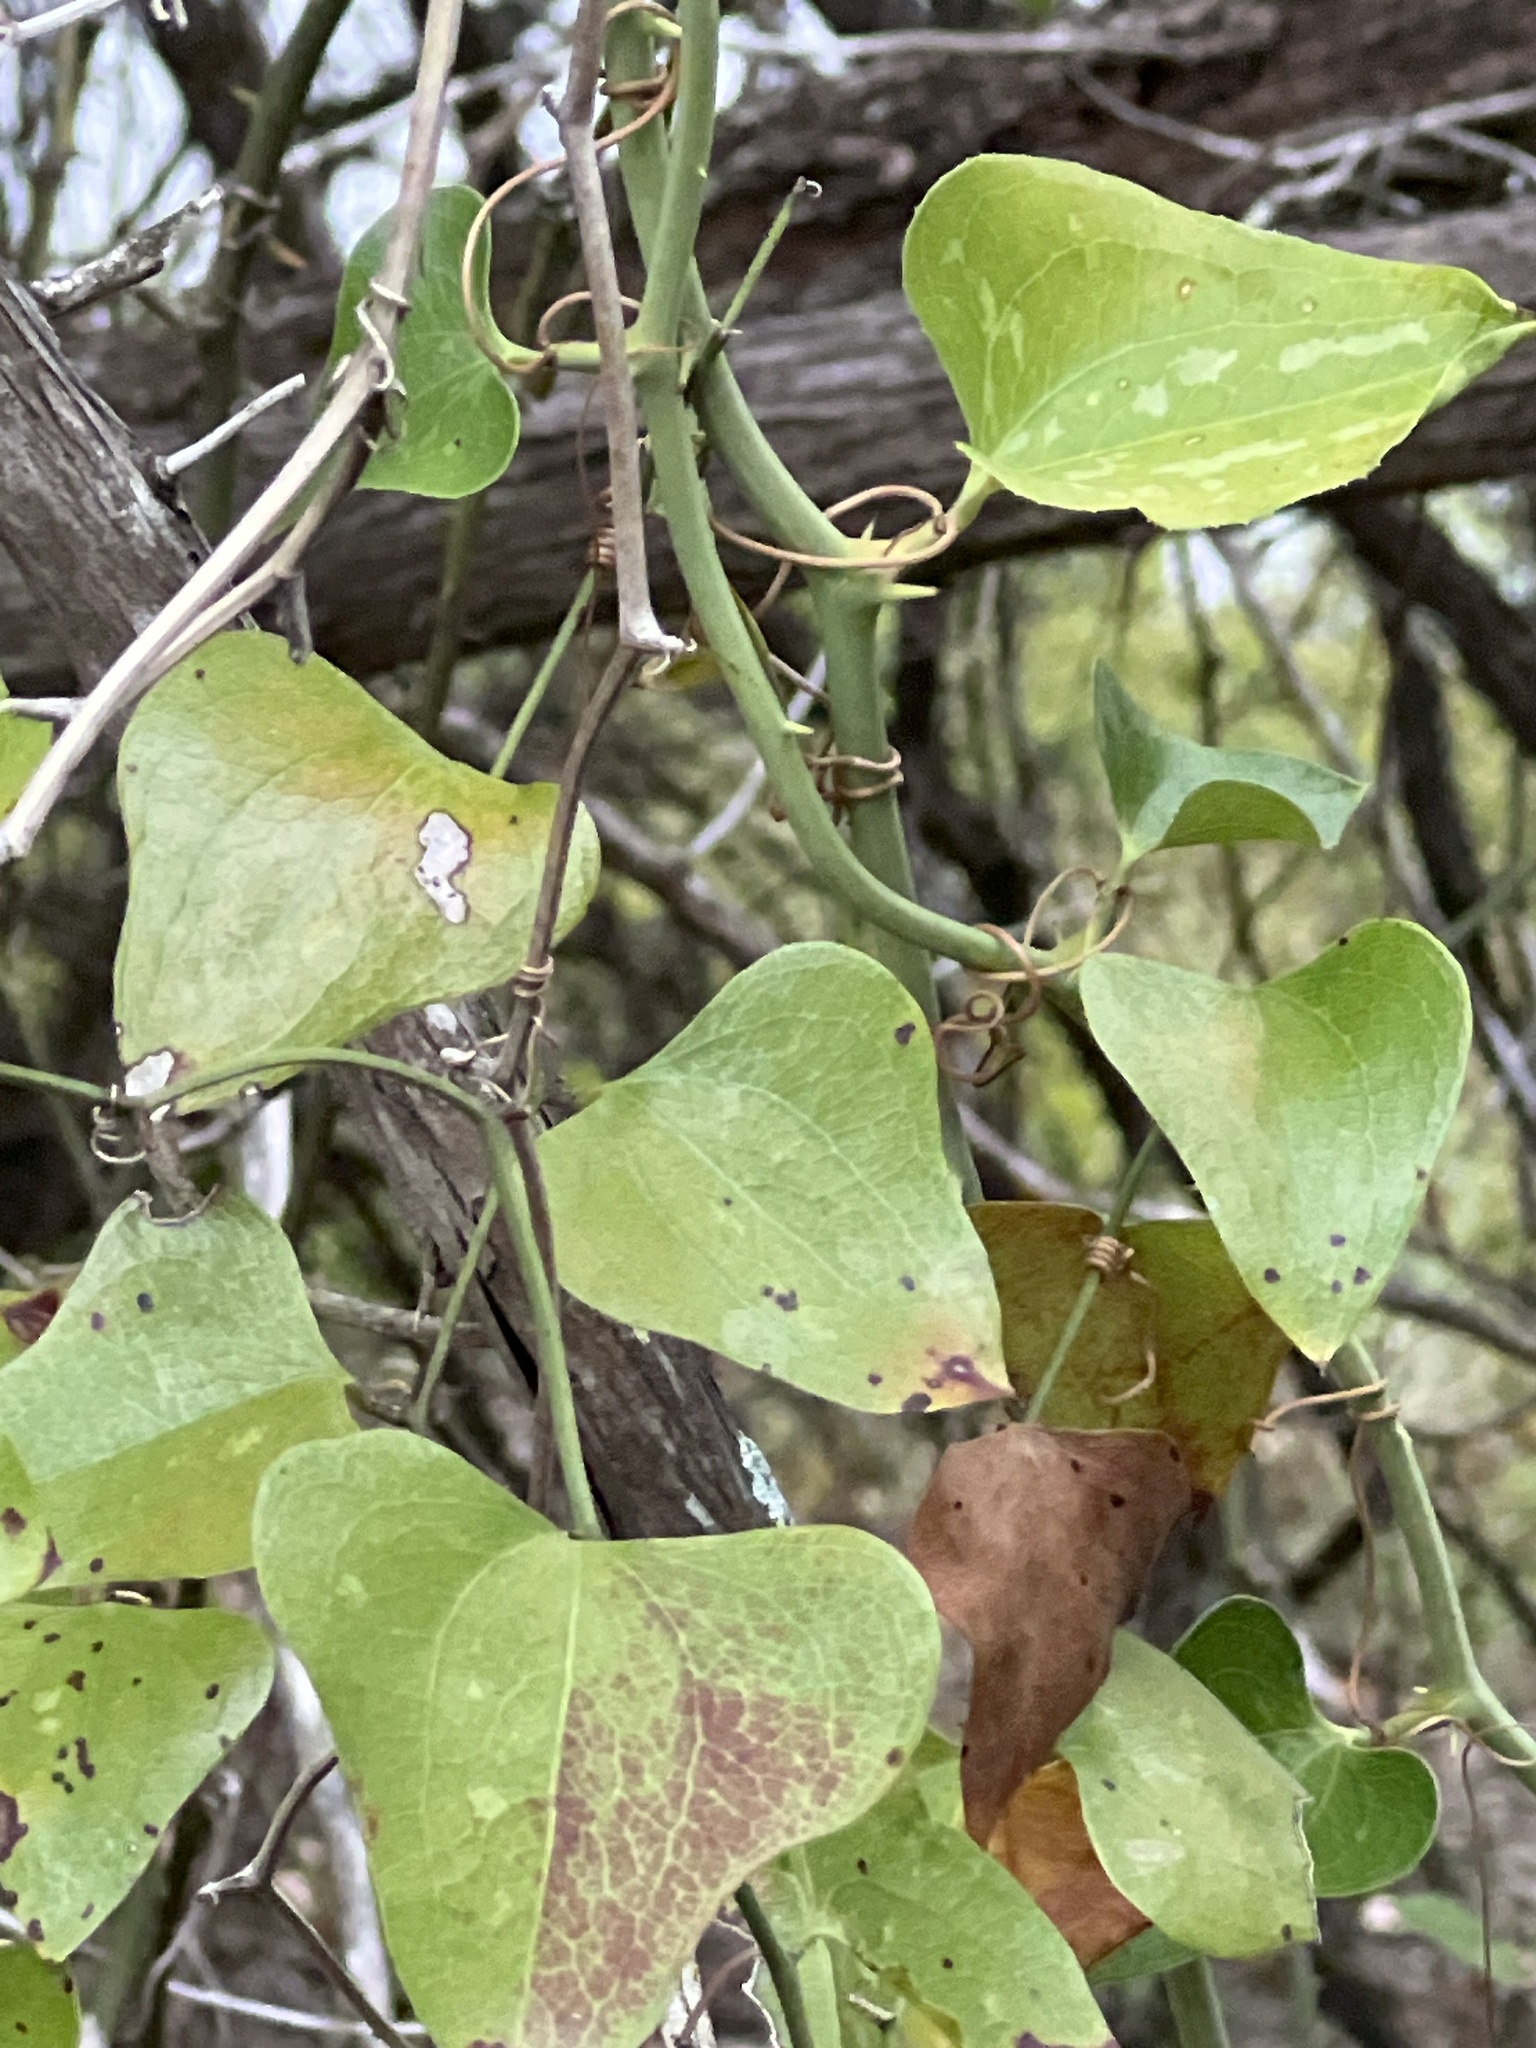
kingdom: Plantae
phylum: Tracheophyta
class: Liliopsida
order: Liliales
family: Smilacaceae
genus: Smilax
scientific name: Smilax bona-nox
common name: Catbrier
